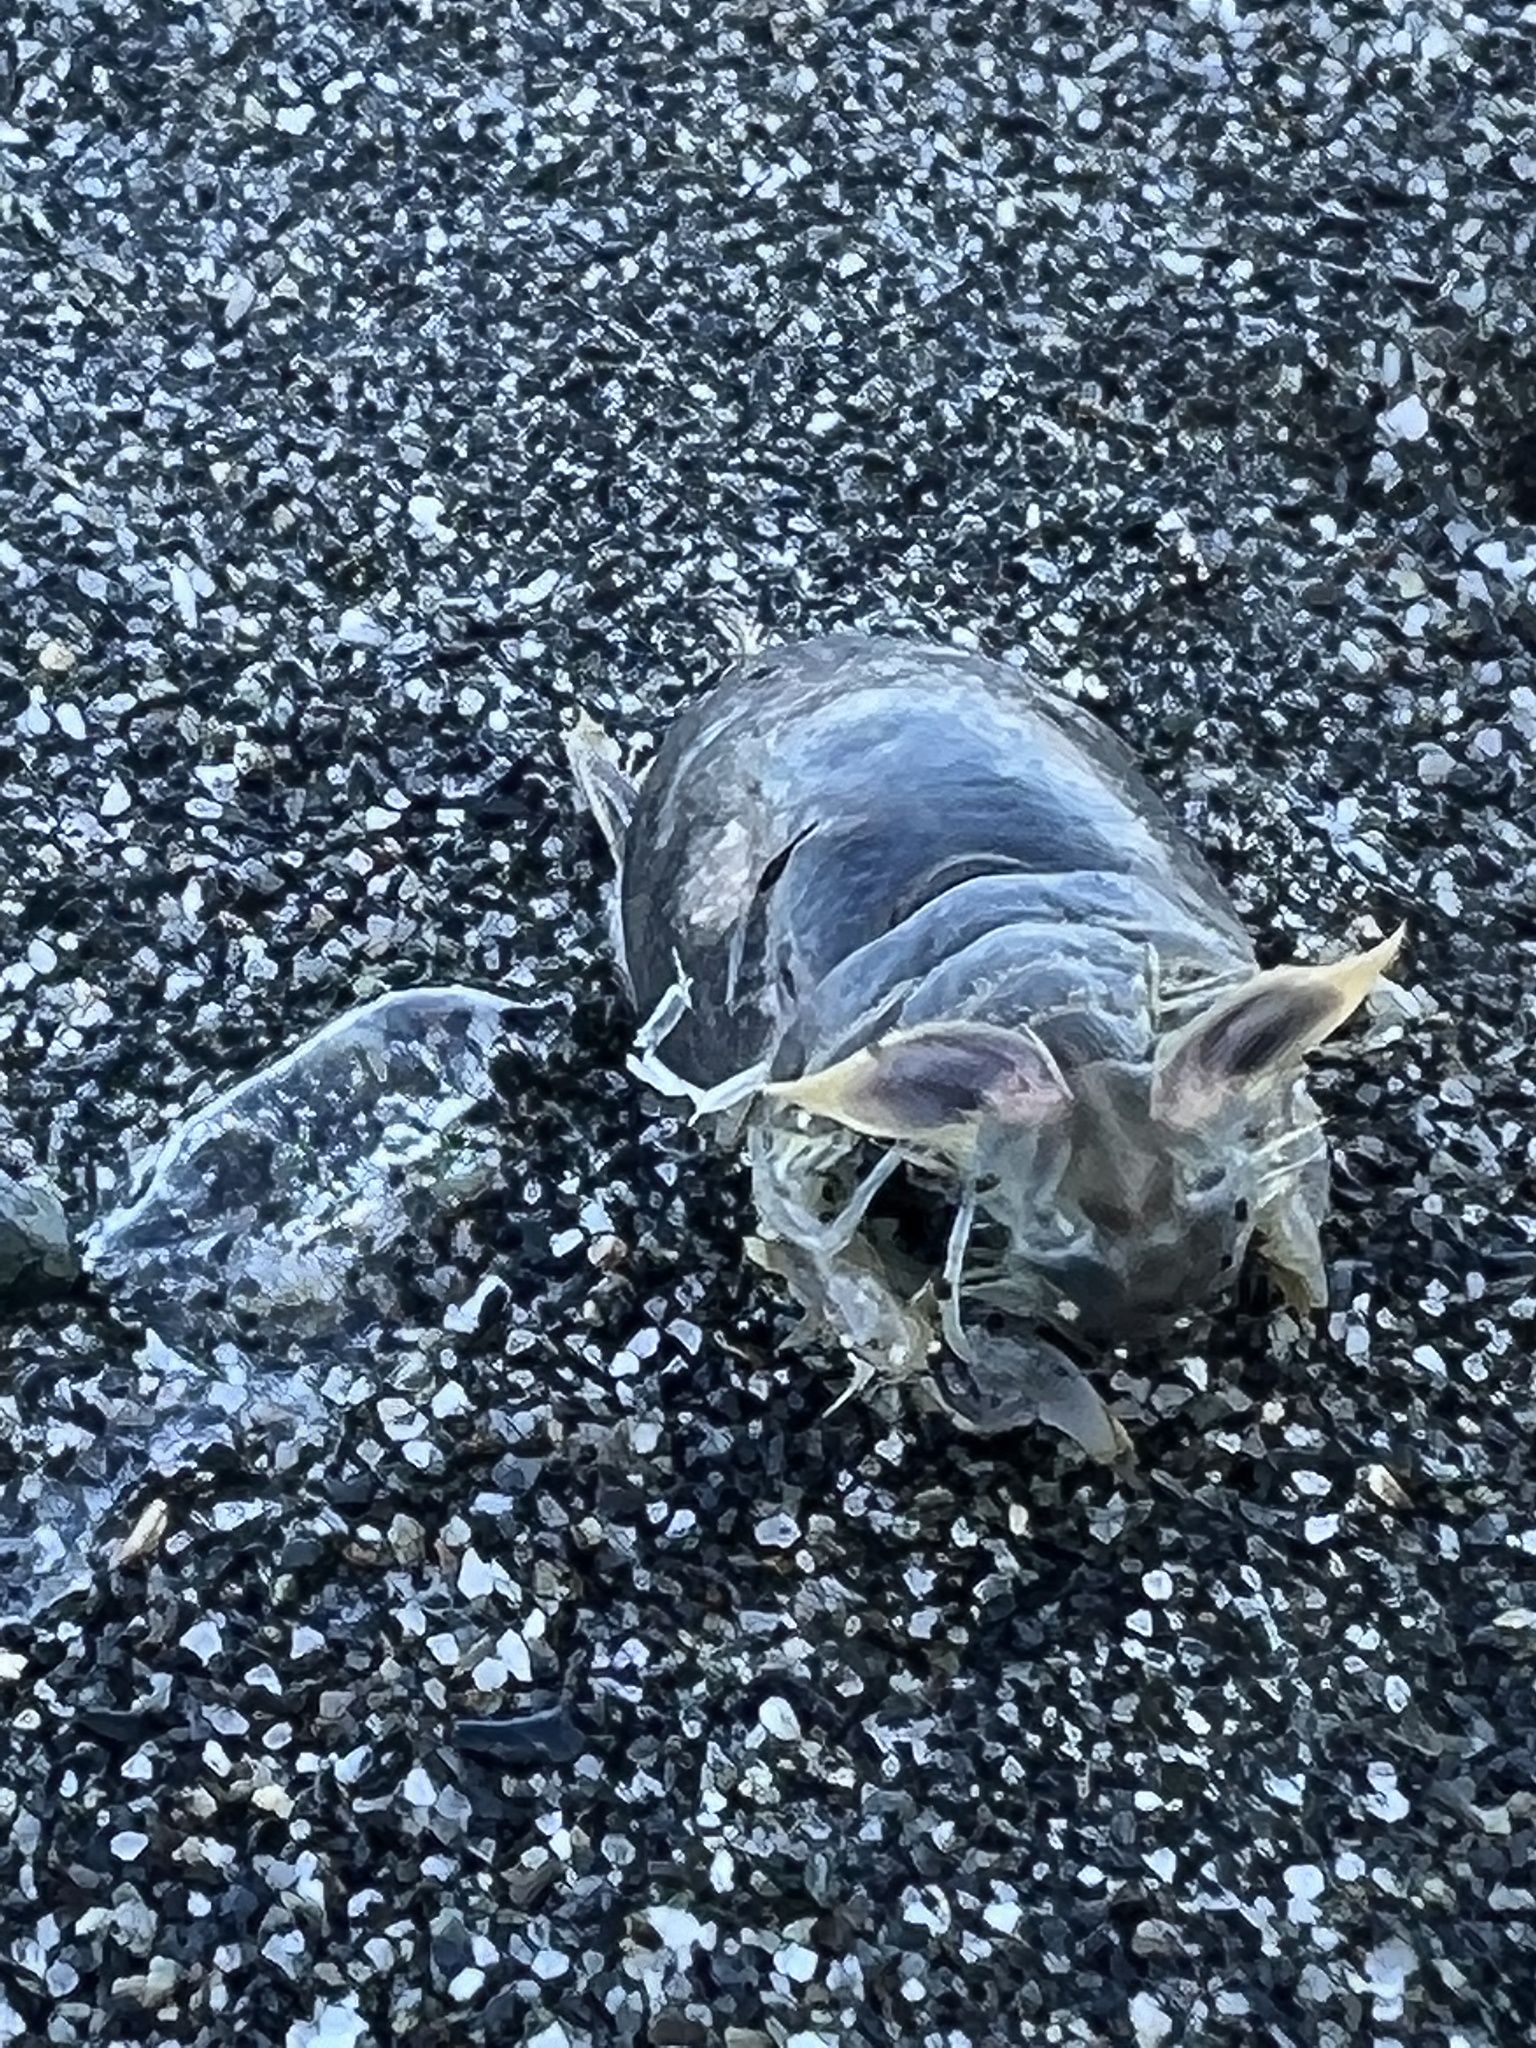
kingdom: Animalia
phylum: Arthropoda
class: Malacostraca
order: Decapoda
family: Hippidae
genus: Emerita
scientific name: Emerita analoga
